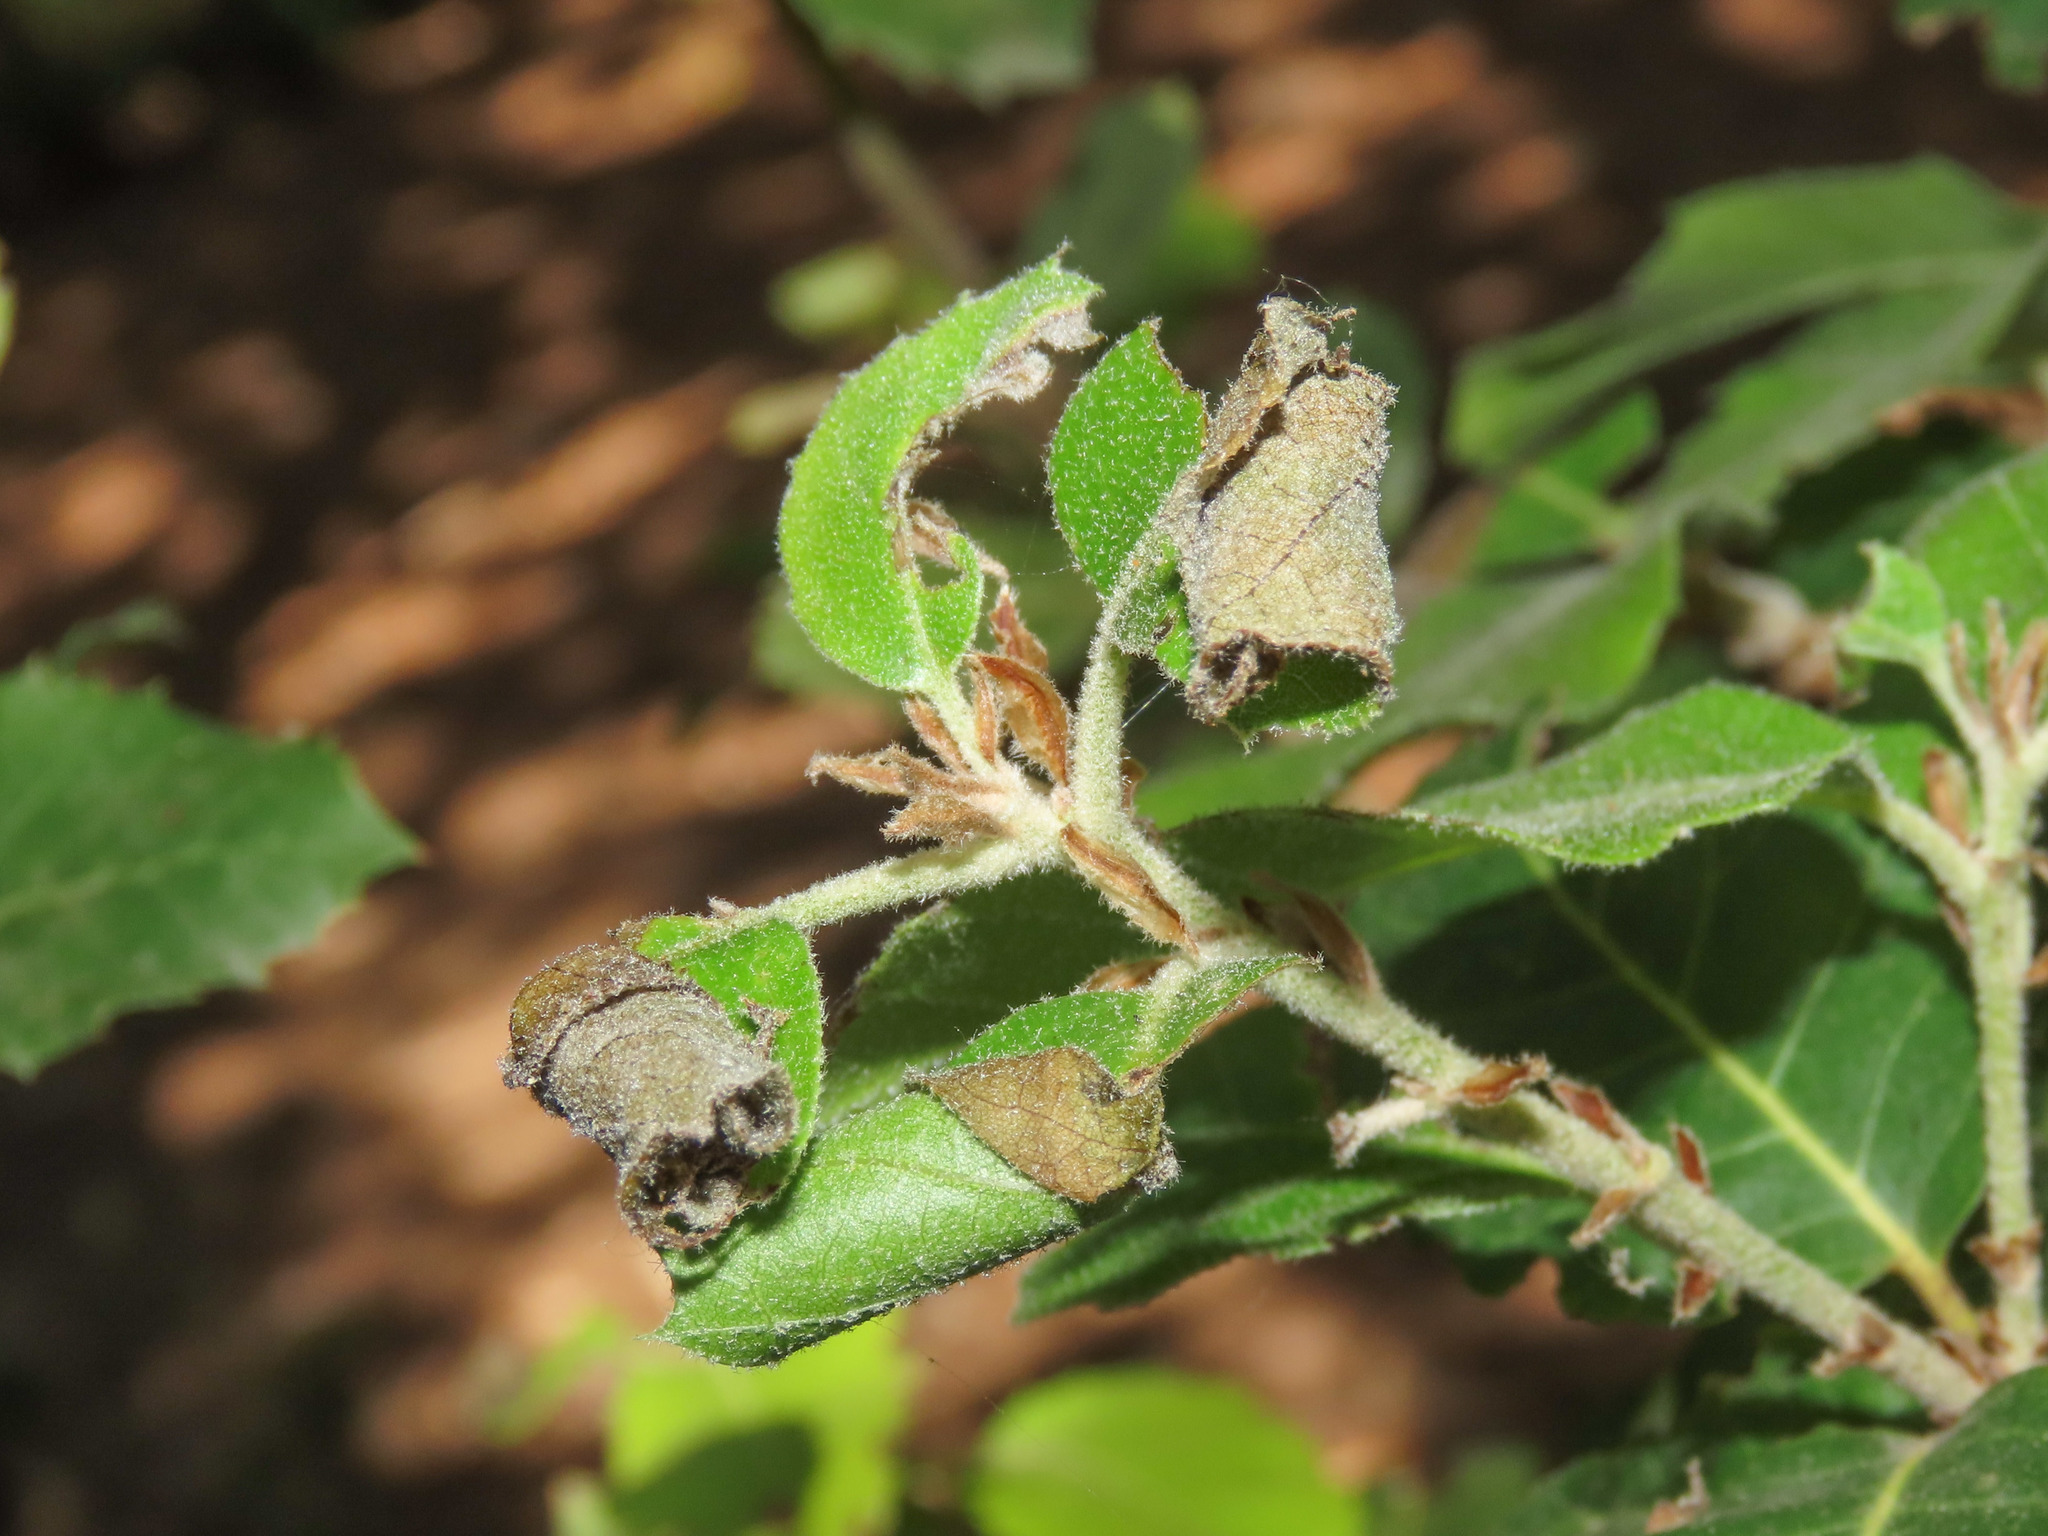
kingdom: Animalia
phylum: Arthropoda
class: Insecta
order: Coleoptera
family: Attelabidae
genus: Attelabus
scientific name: Attelabus nitens
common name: Oak leaf-roller
